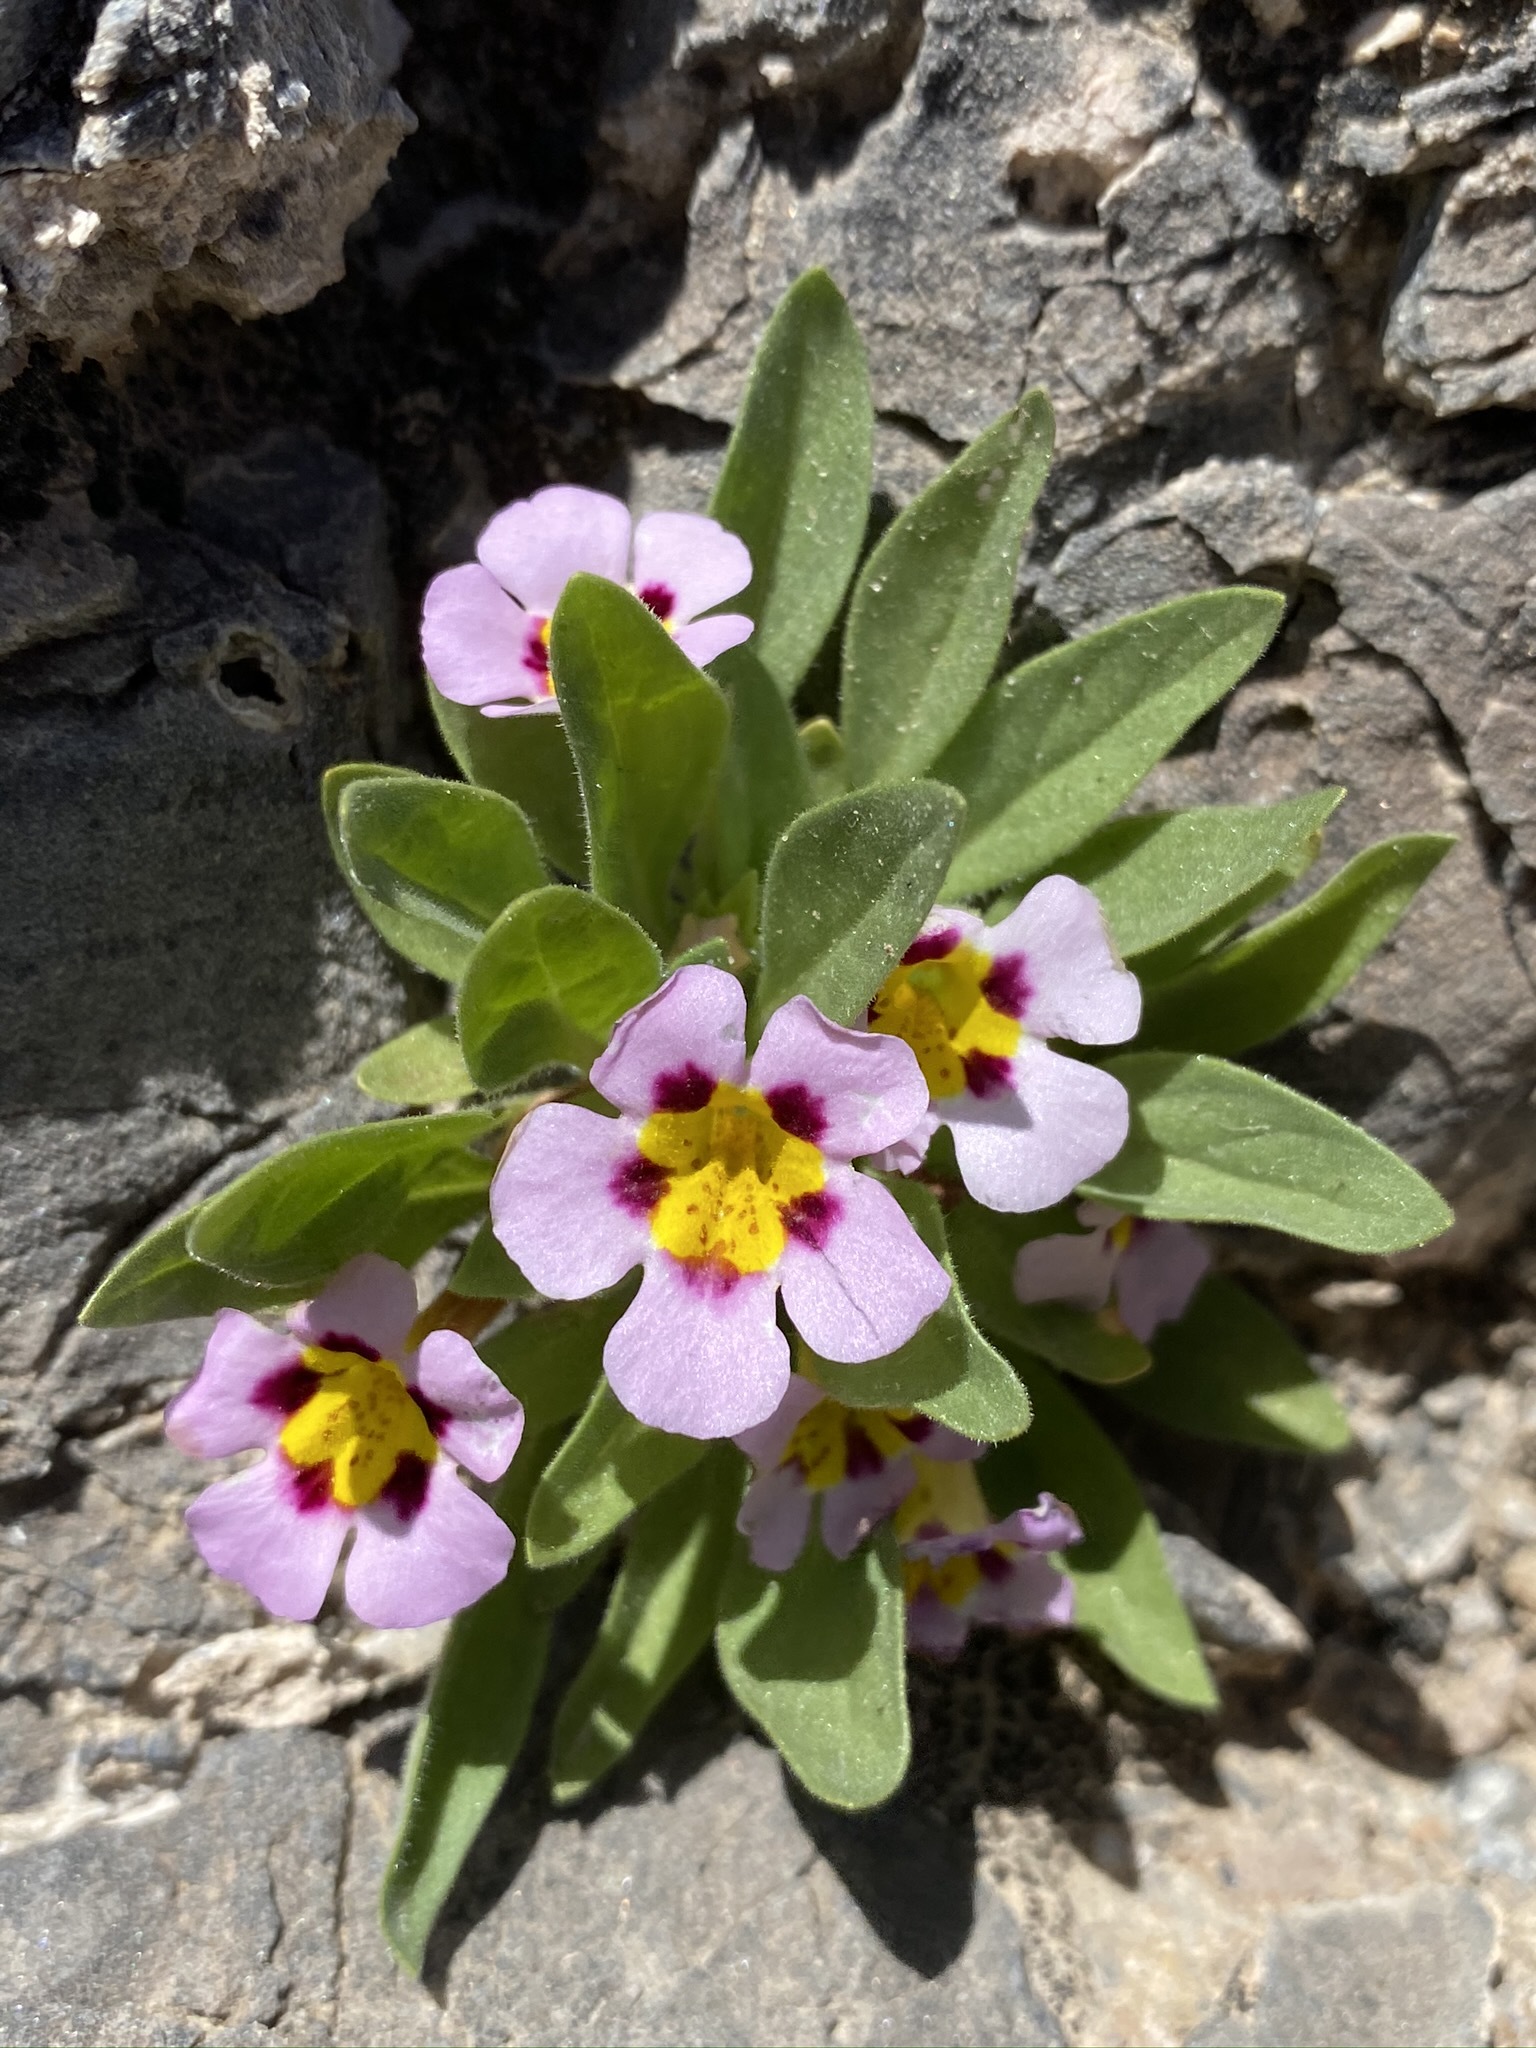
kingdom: Plantae
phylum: Tracheophyta
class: Magnoliopsida
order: Lamiales
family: Phrymaceae
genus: Diplacus
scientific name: Diplacus rupicola
